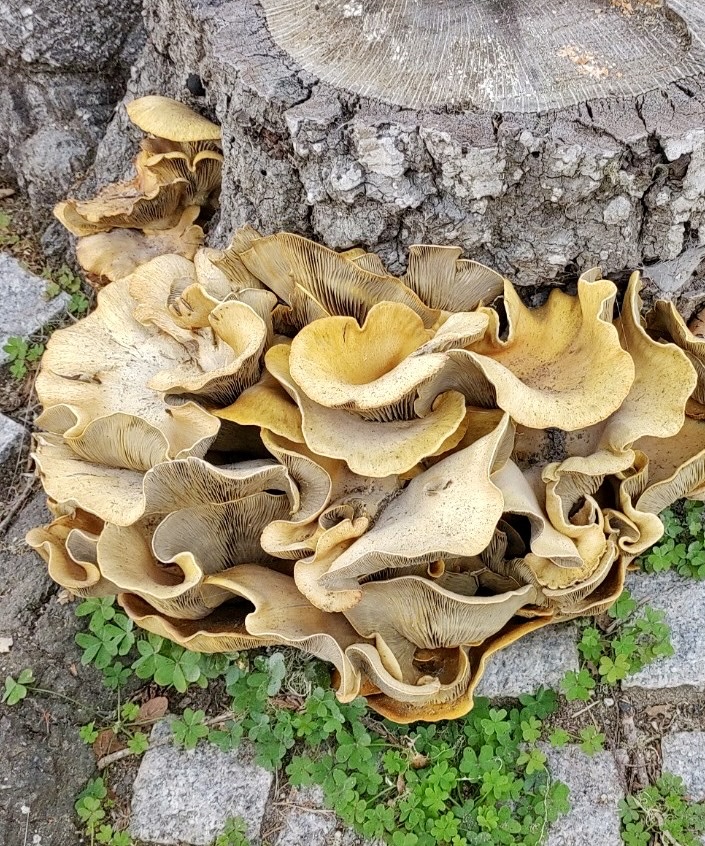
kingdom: Fungi
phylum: Basidiomycota
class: Agaricomycetes
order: Agaricales
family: Omphalotaceae
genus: Omphalotus
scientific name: Omphalotus olivascens
